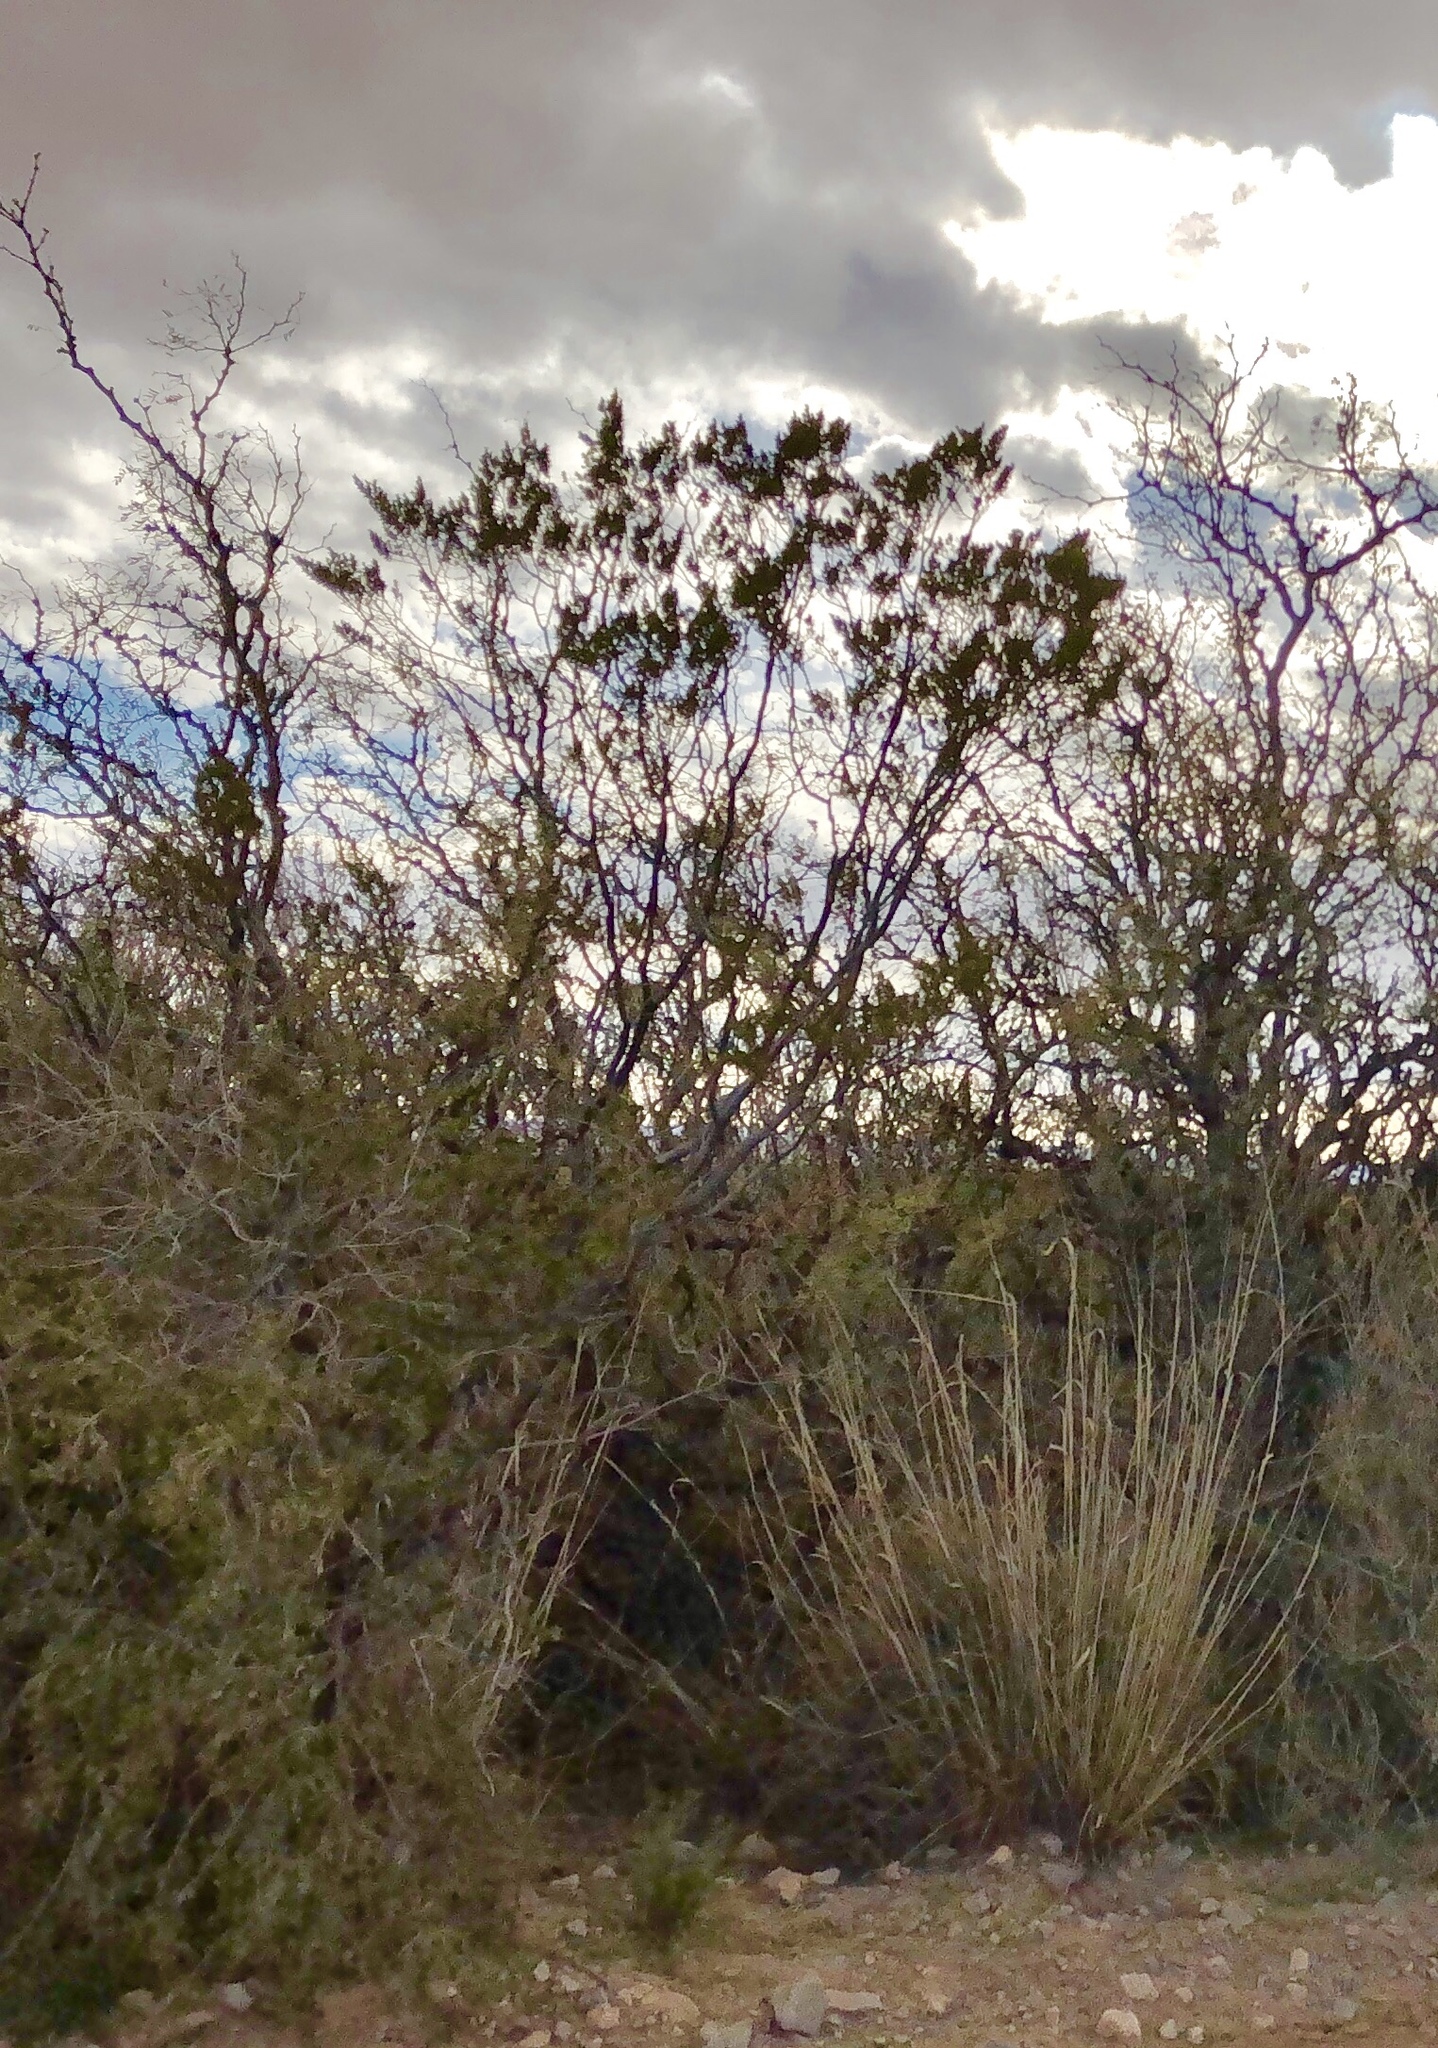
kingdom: Plantae
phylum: Tracheophyta
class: Magnoliopsida
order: Zygophyllales
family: Zygophyllaceae
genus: Larrea
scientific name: Larrea tridentata
